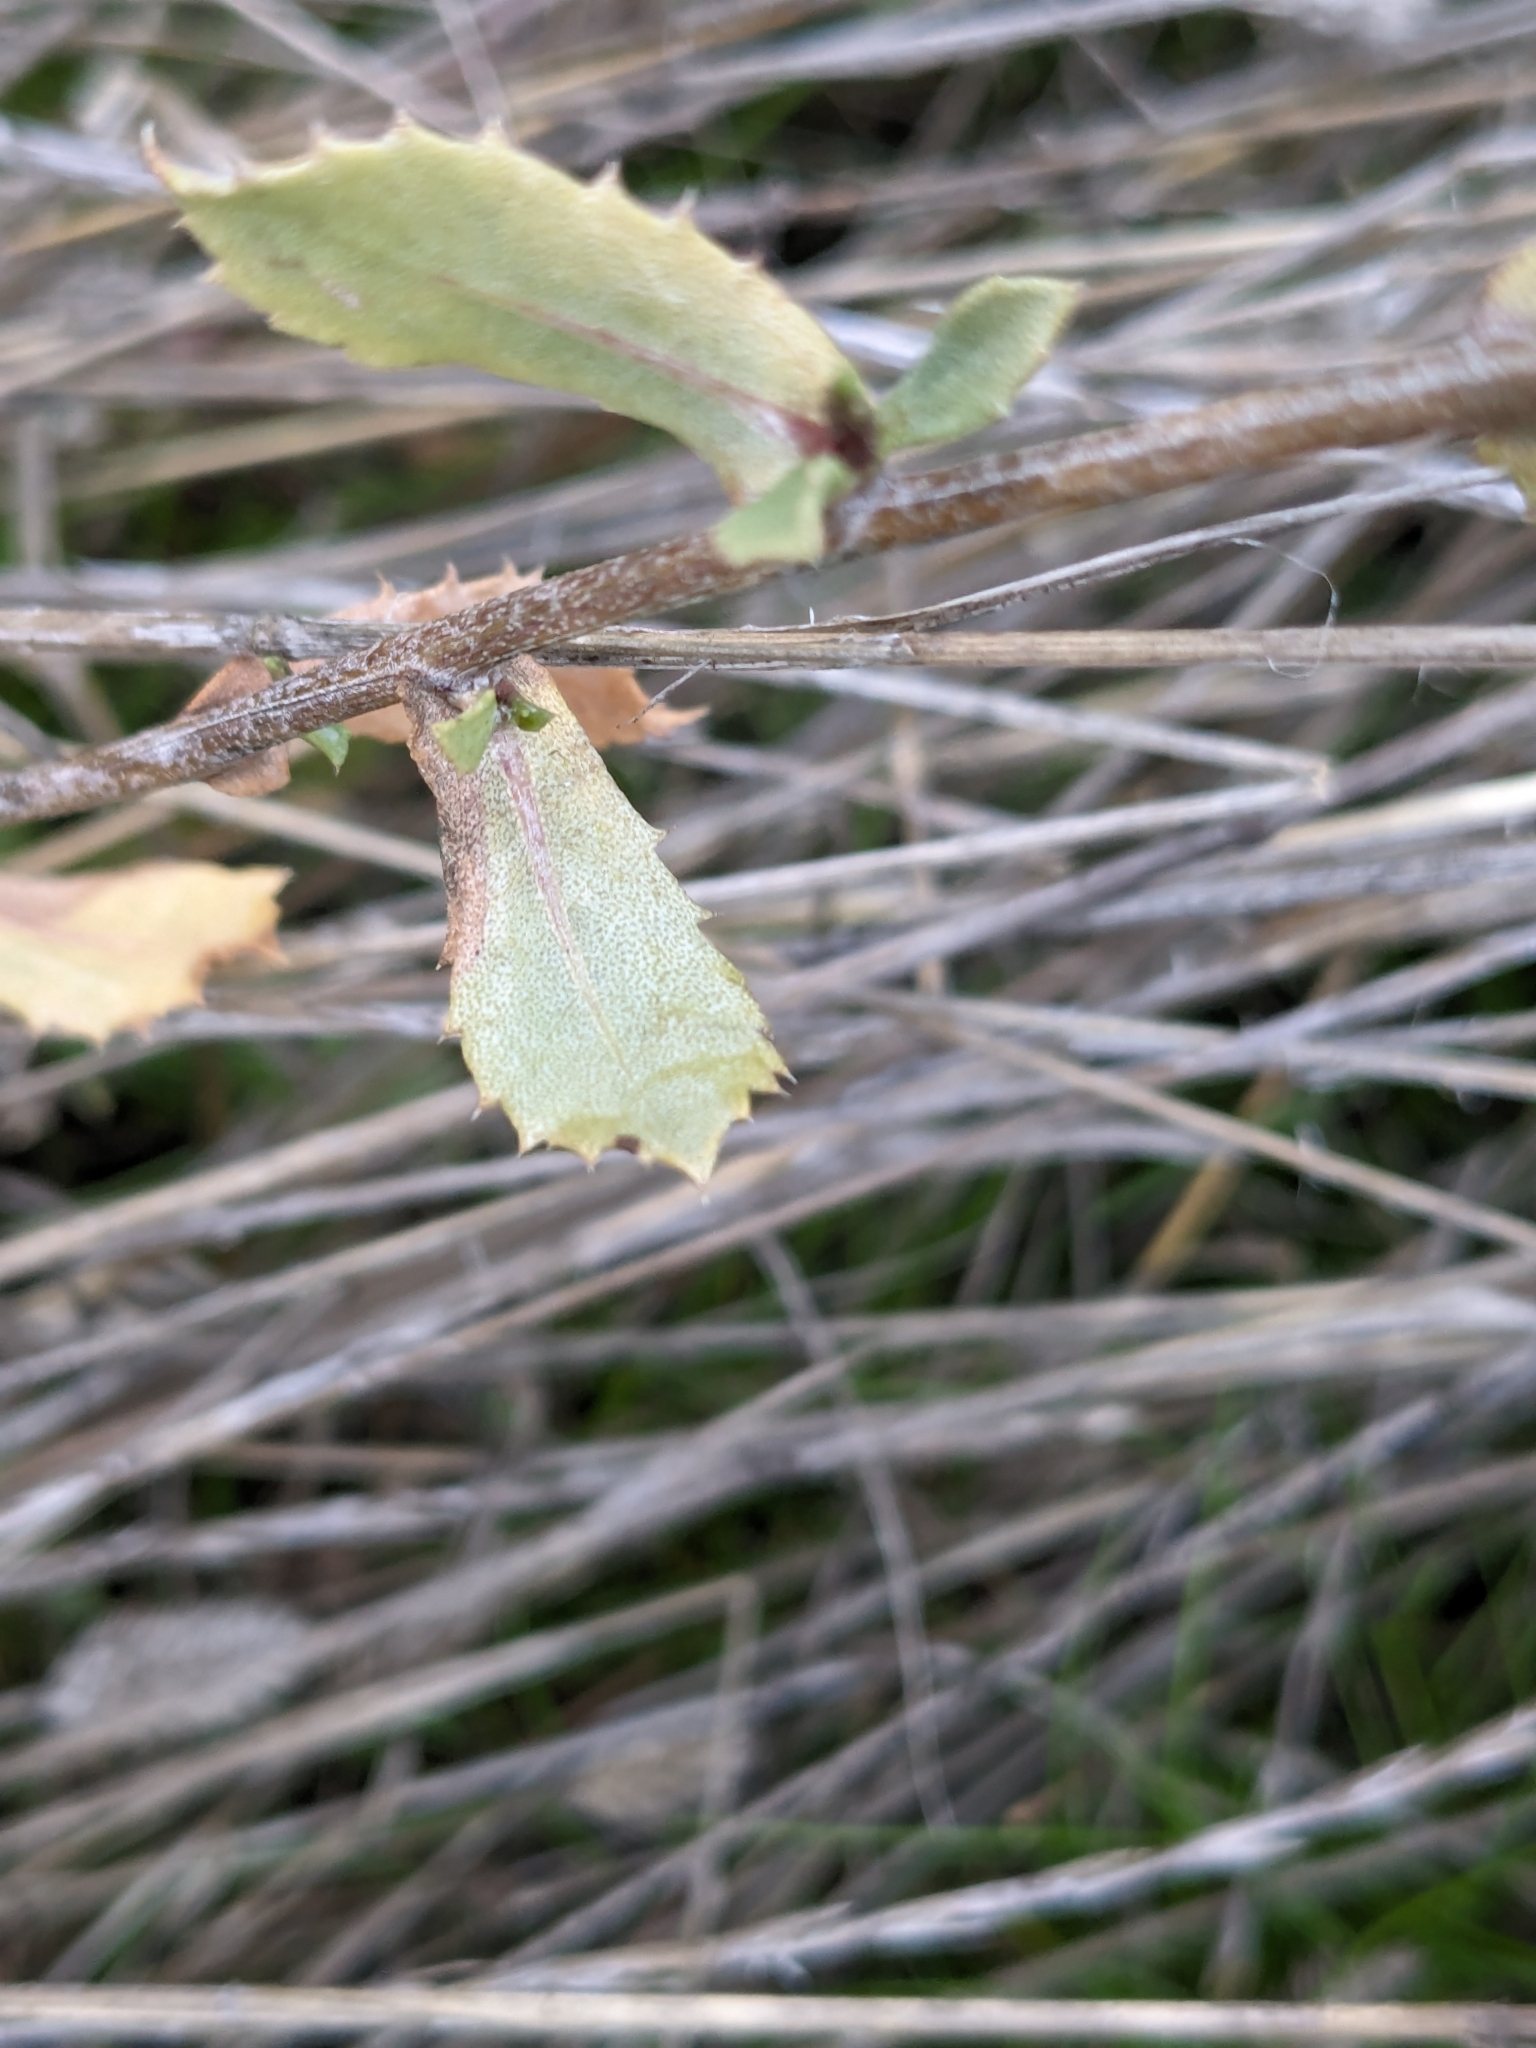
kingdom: Plantae
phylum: Tracheophyta
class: Magnoliopsida
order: Asterales
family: Asteraceae
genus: Grindelia
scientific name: Grindelia hirsutula
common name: Hairy gumweed
